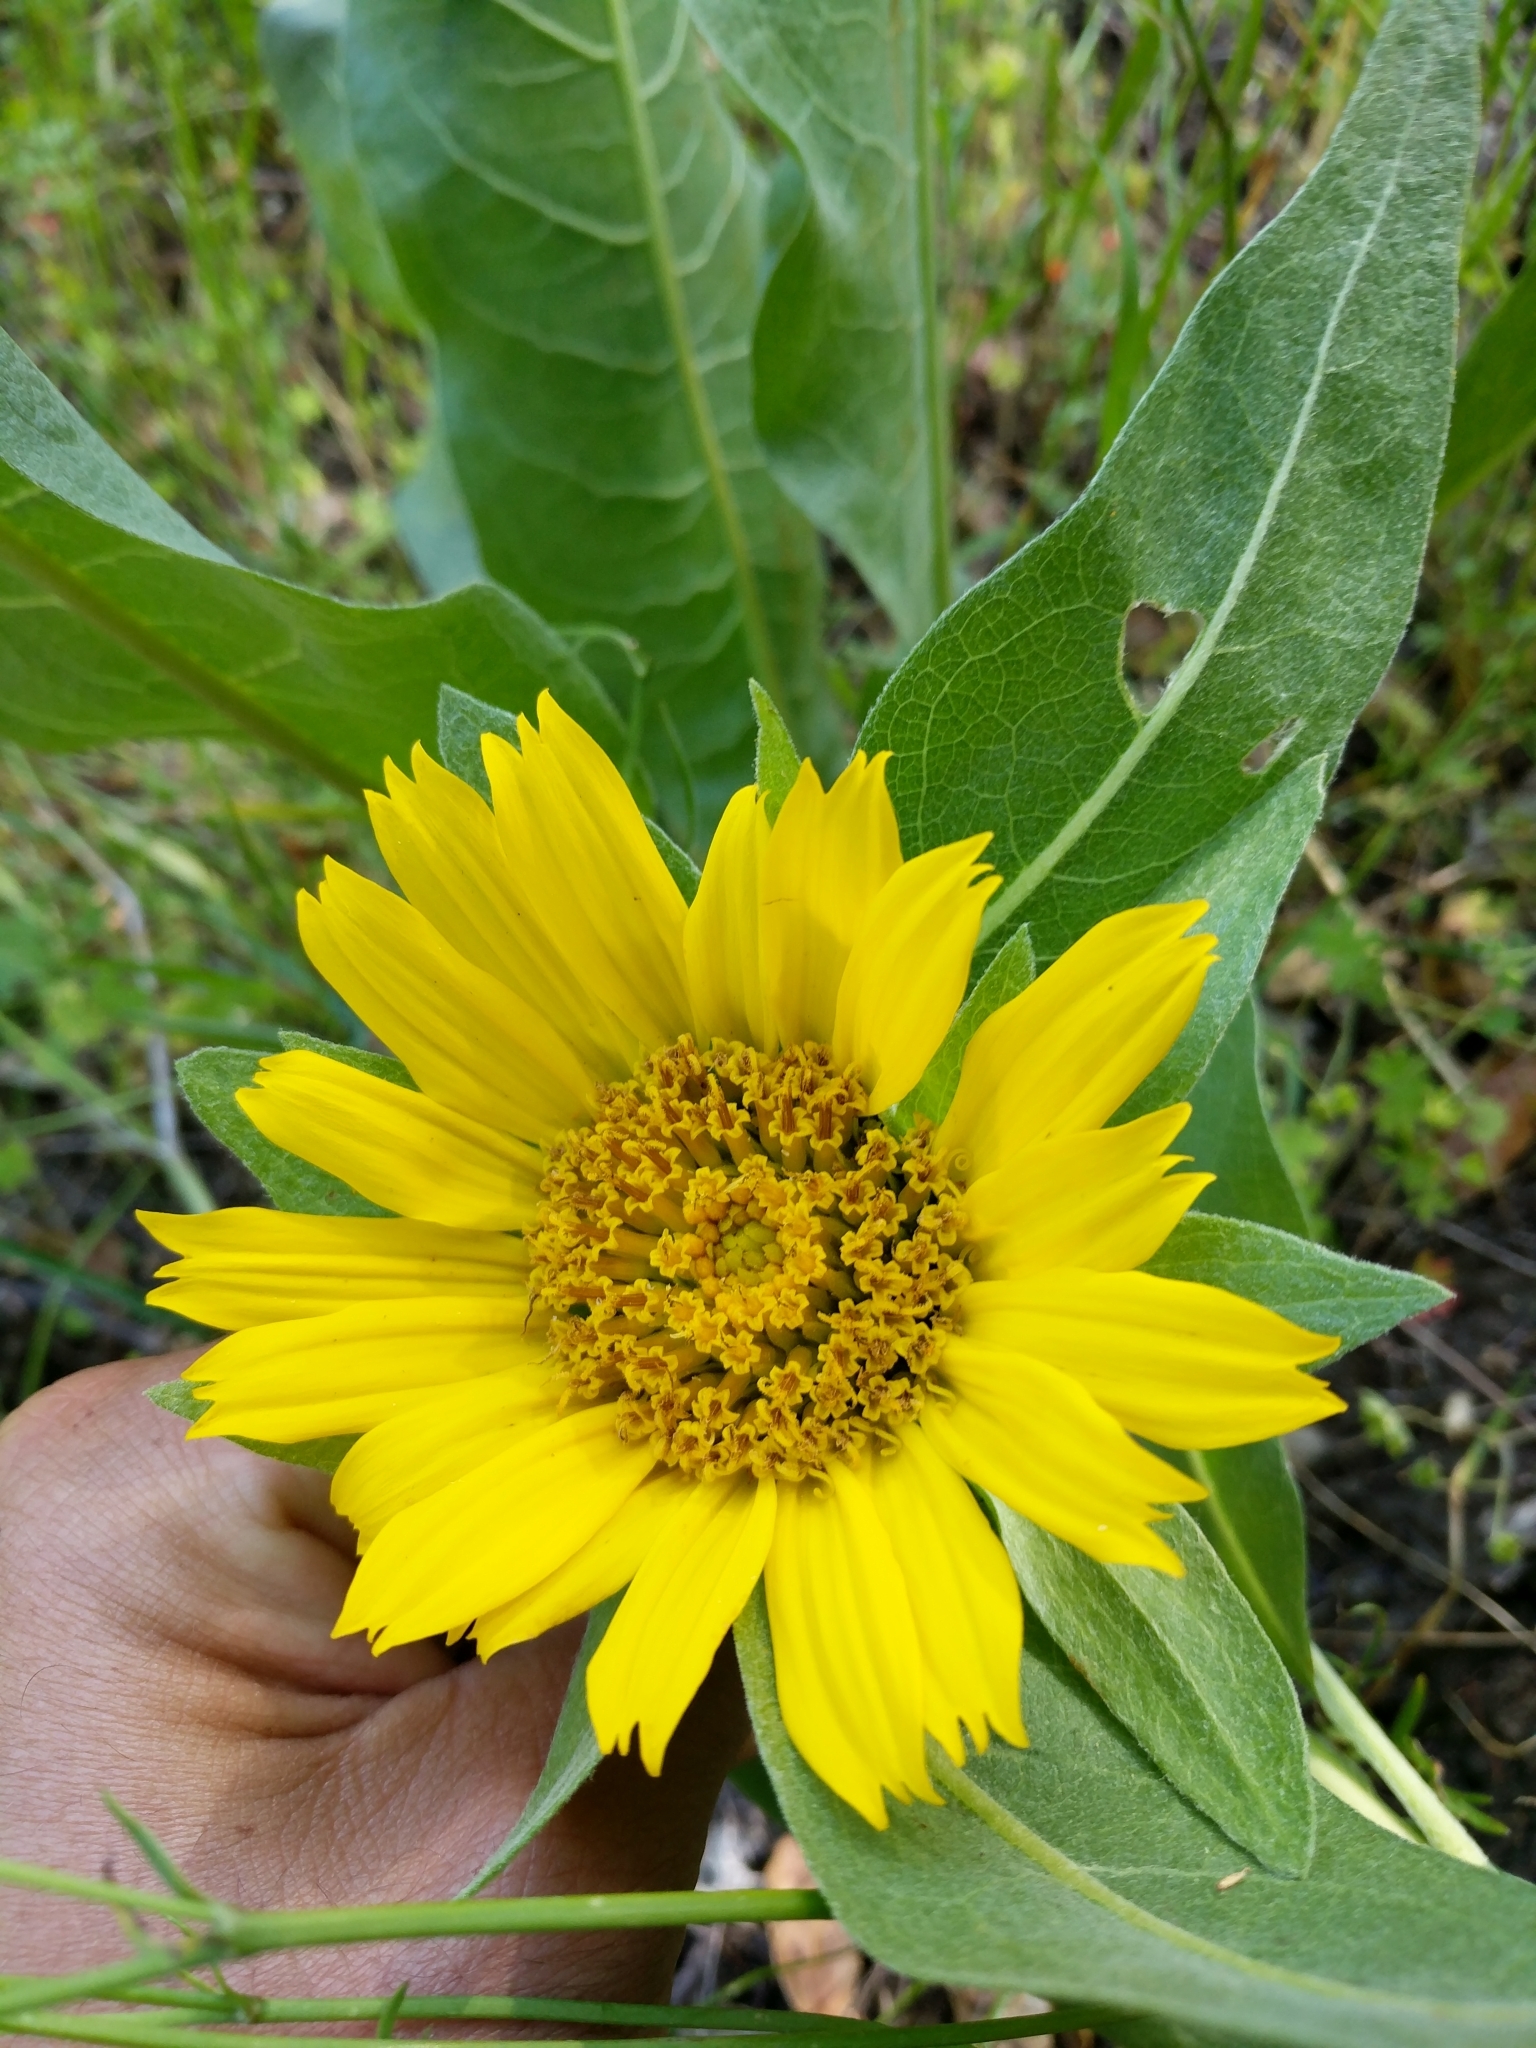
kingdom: Plantae
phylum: Tracheophyta
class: Magnoliopsida
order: Asterales
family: Asteraceae
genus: Wyethia
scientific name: Wyethia glabra
